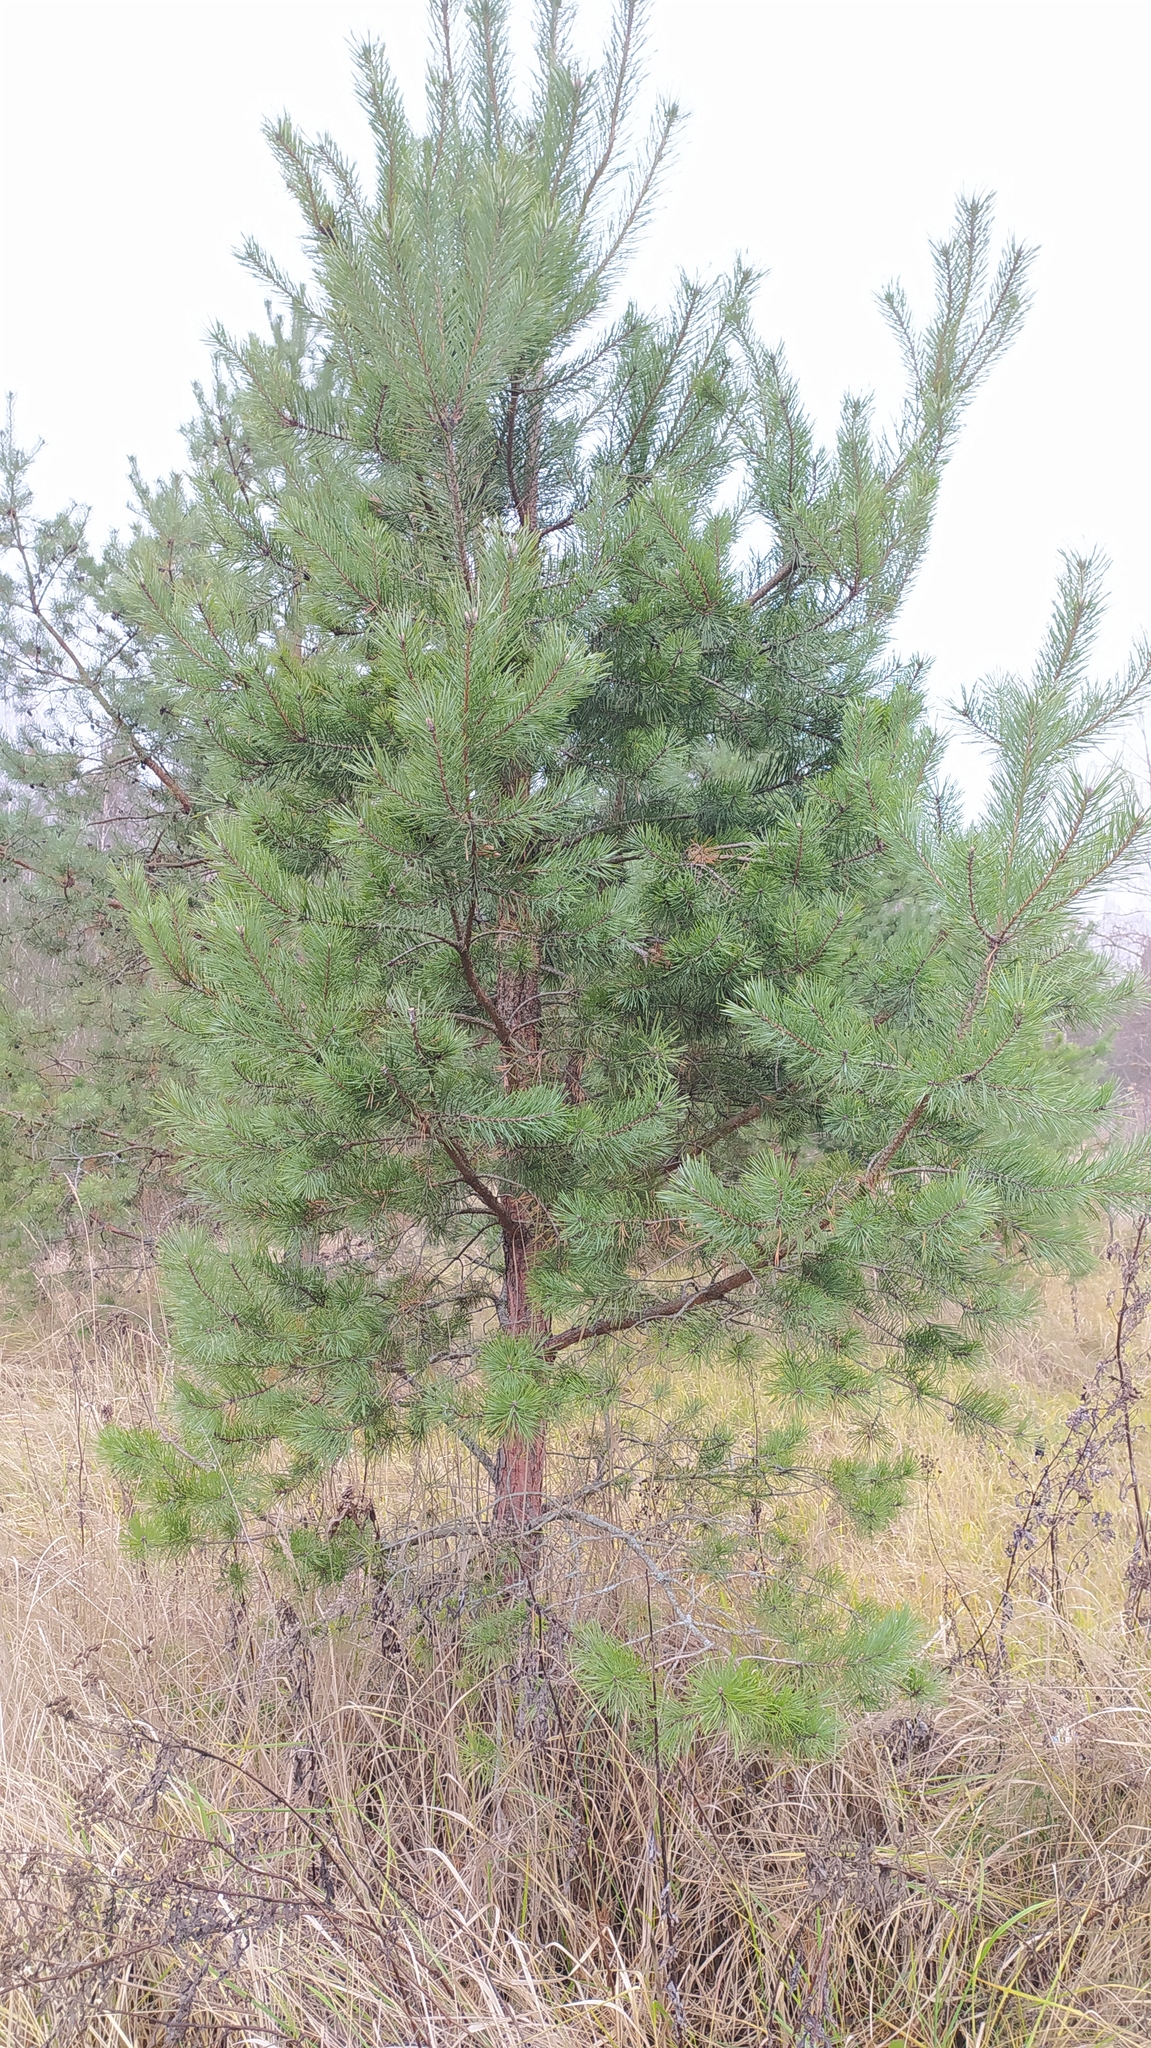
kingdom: Plantae
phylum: Tracheophyta
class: Pinopsida
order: Pinales
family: Pinaceae
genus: Pinus
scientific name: Pinus sylvestris
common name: Scots pine
